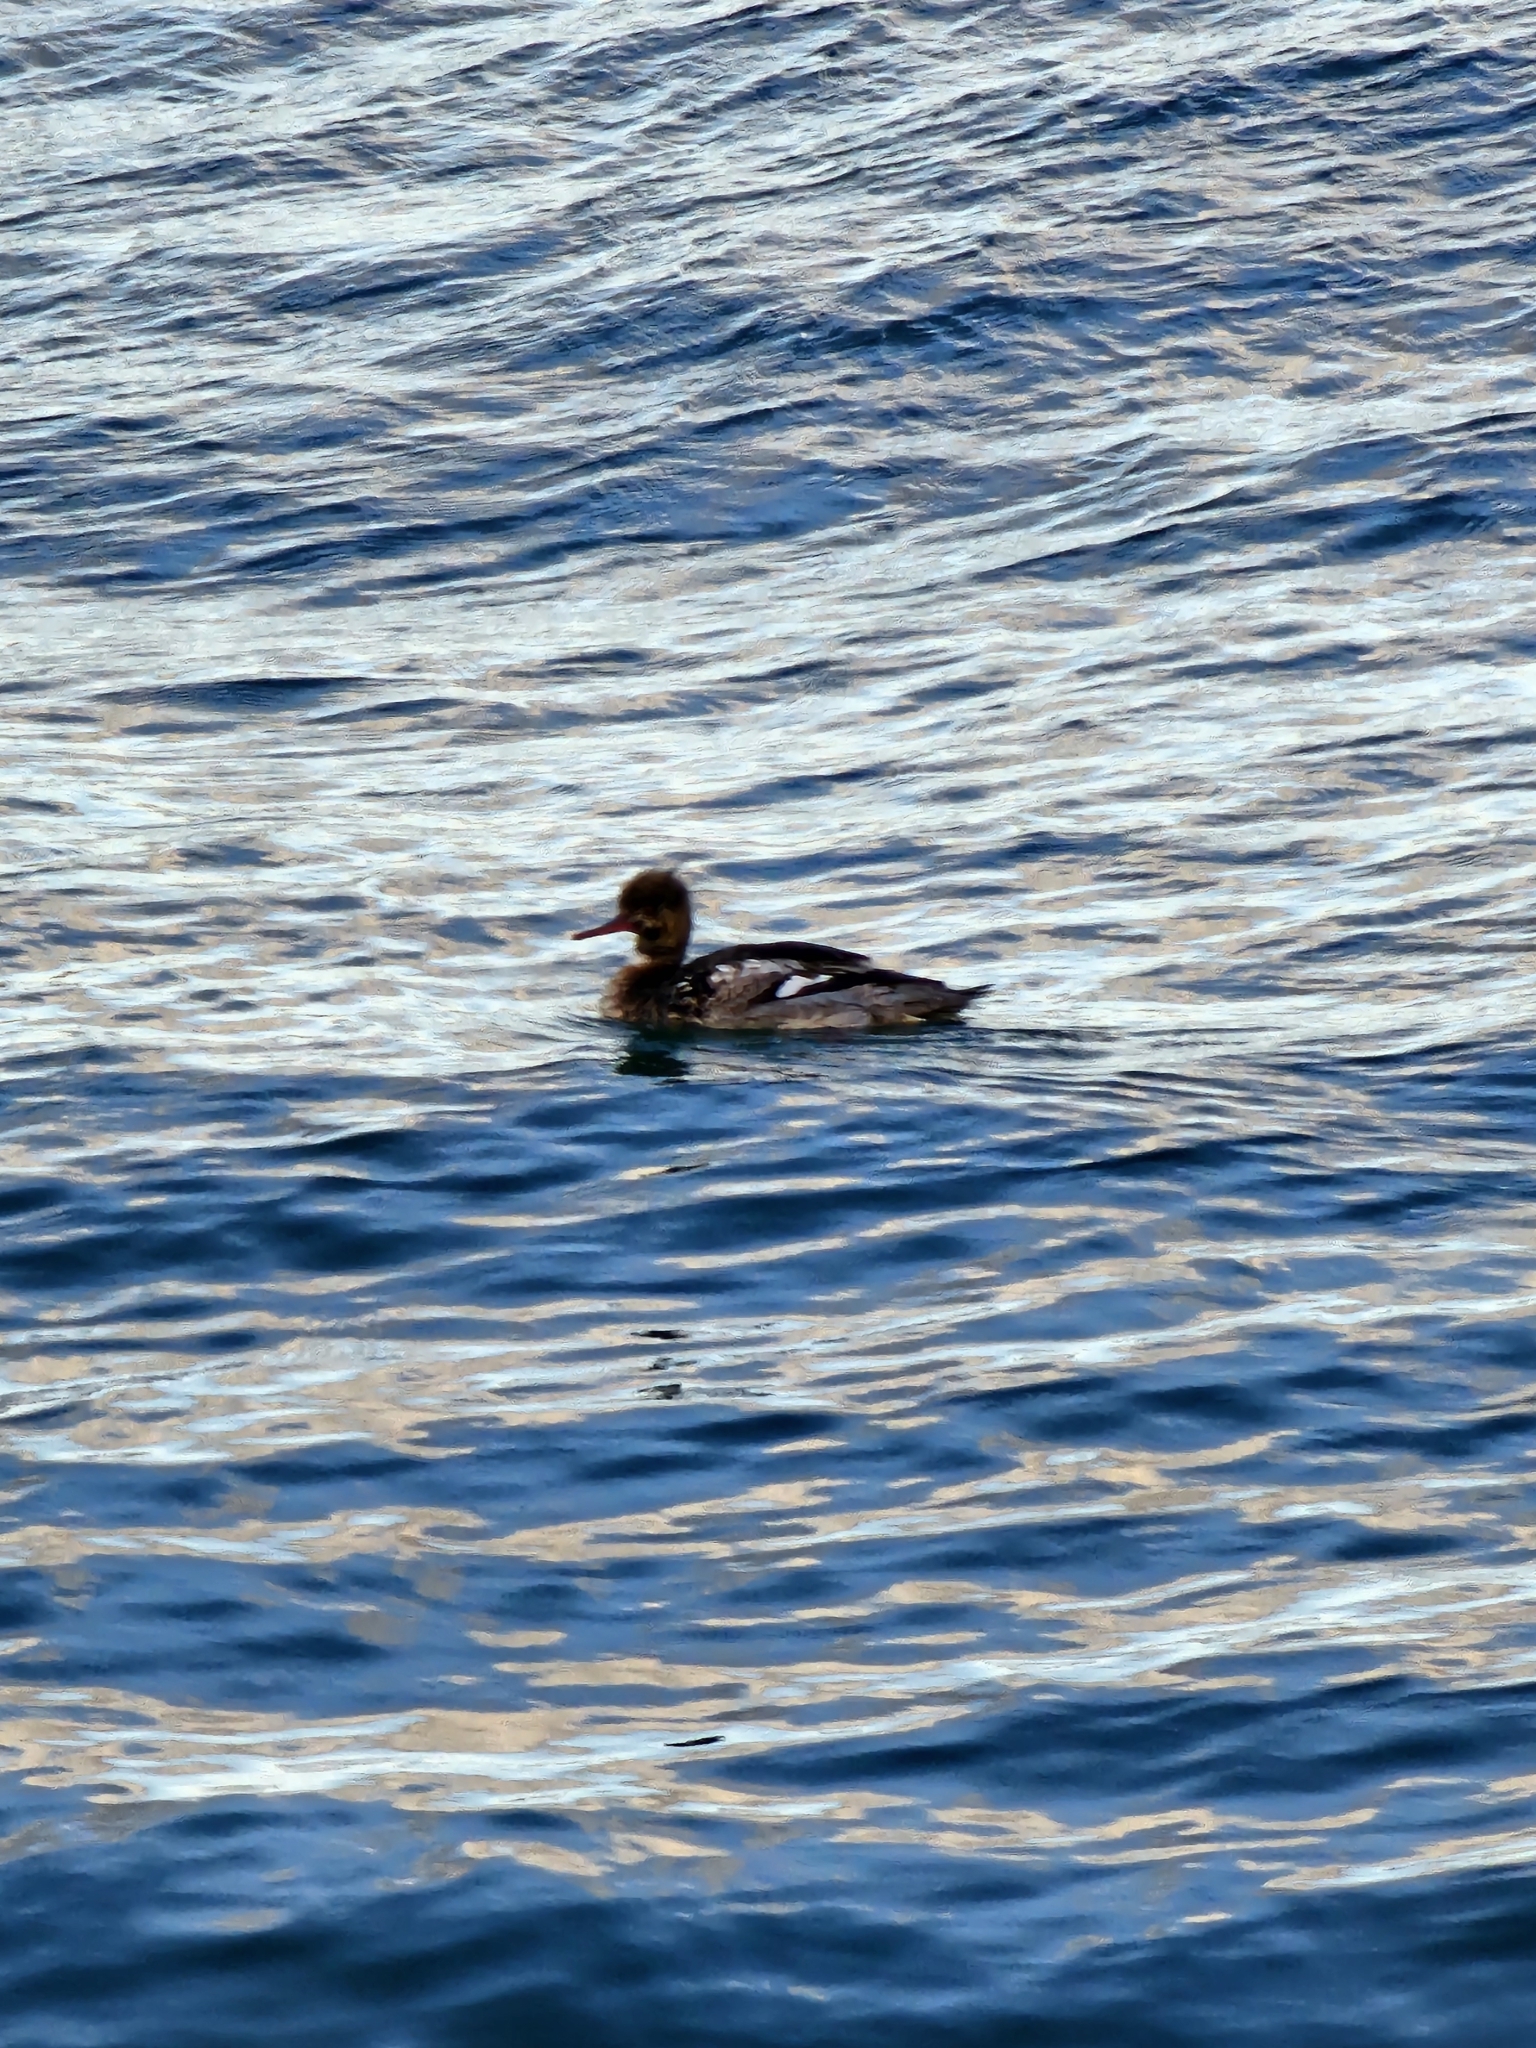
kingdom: Animalia
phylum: Chordata
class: Aves
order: Anseriformes
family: Anatidae
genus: Mergus
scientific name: Mergus serrator
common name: Red-breasted merganser
